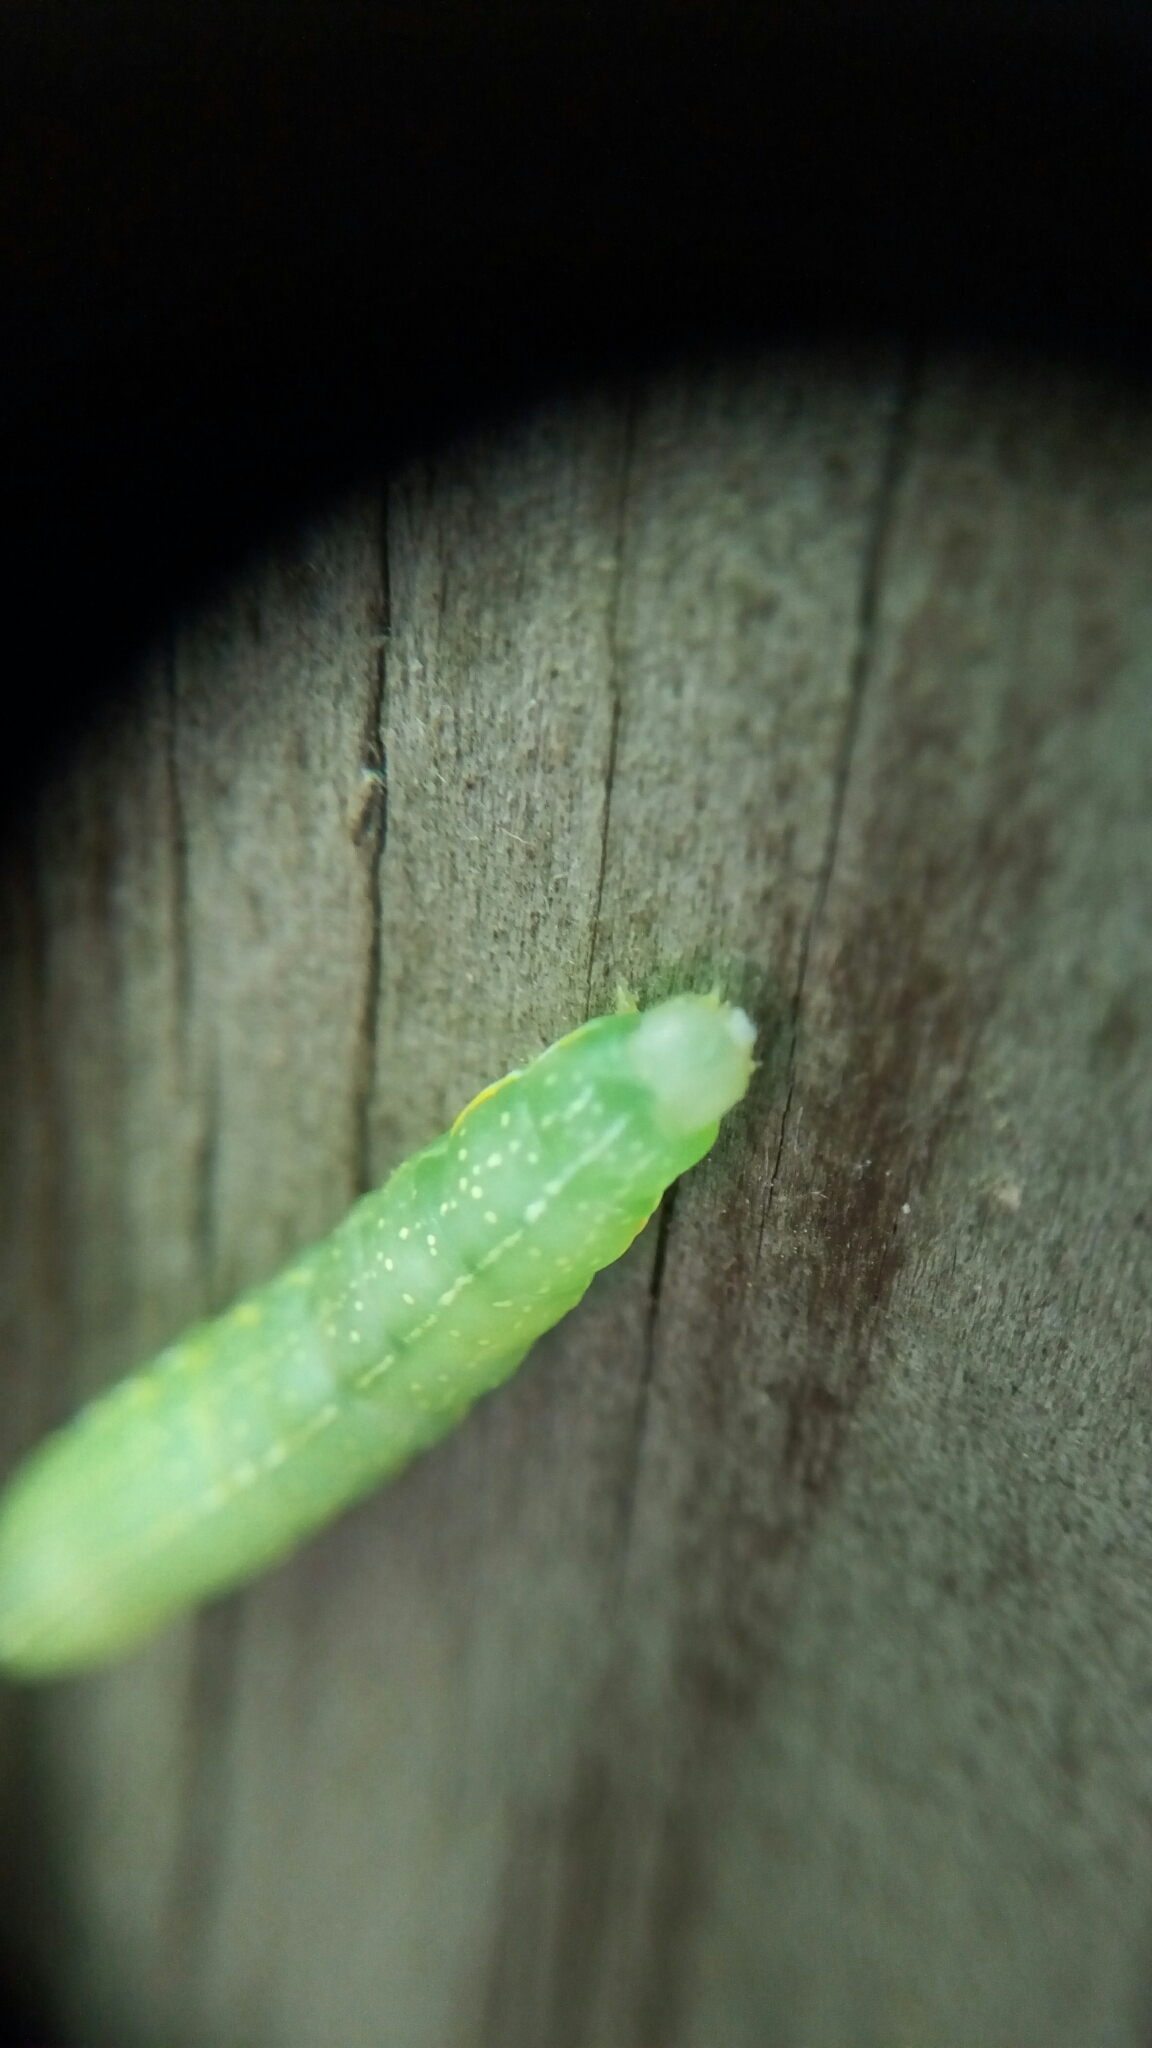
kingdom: Animalia
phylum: Arthropoda
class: Insecta
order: Lepidoptera
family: Noctuidae
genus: Amphipyra
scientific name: Amphipyra pyramidoides
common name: American copper underwing
